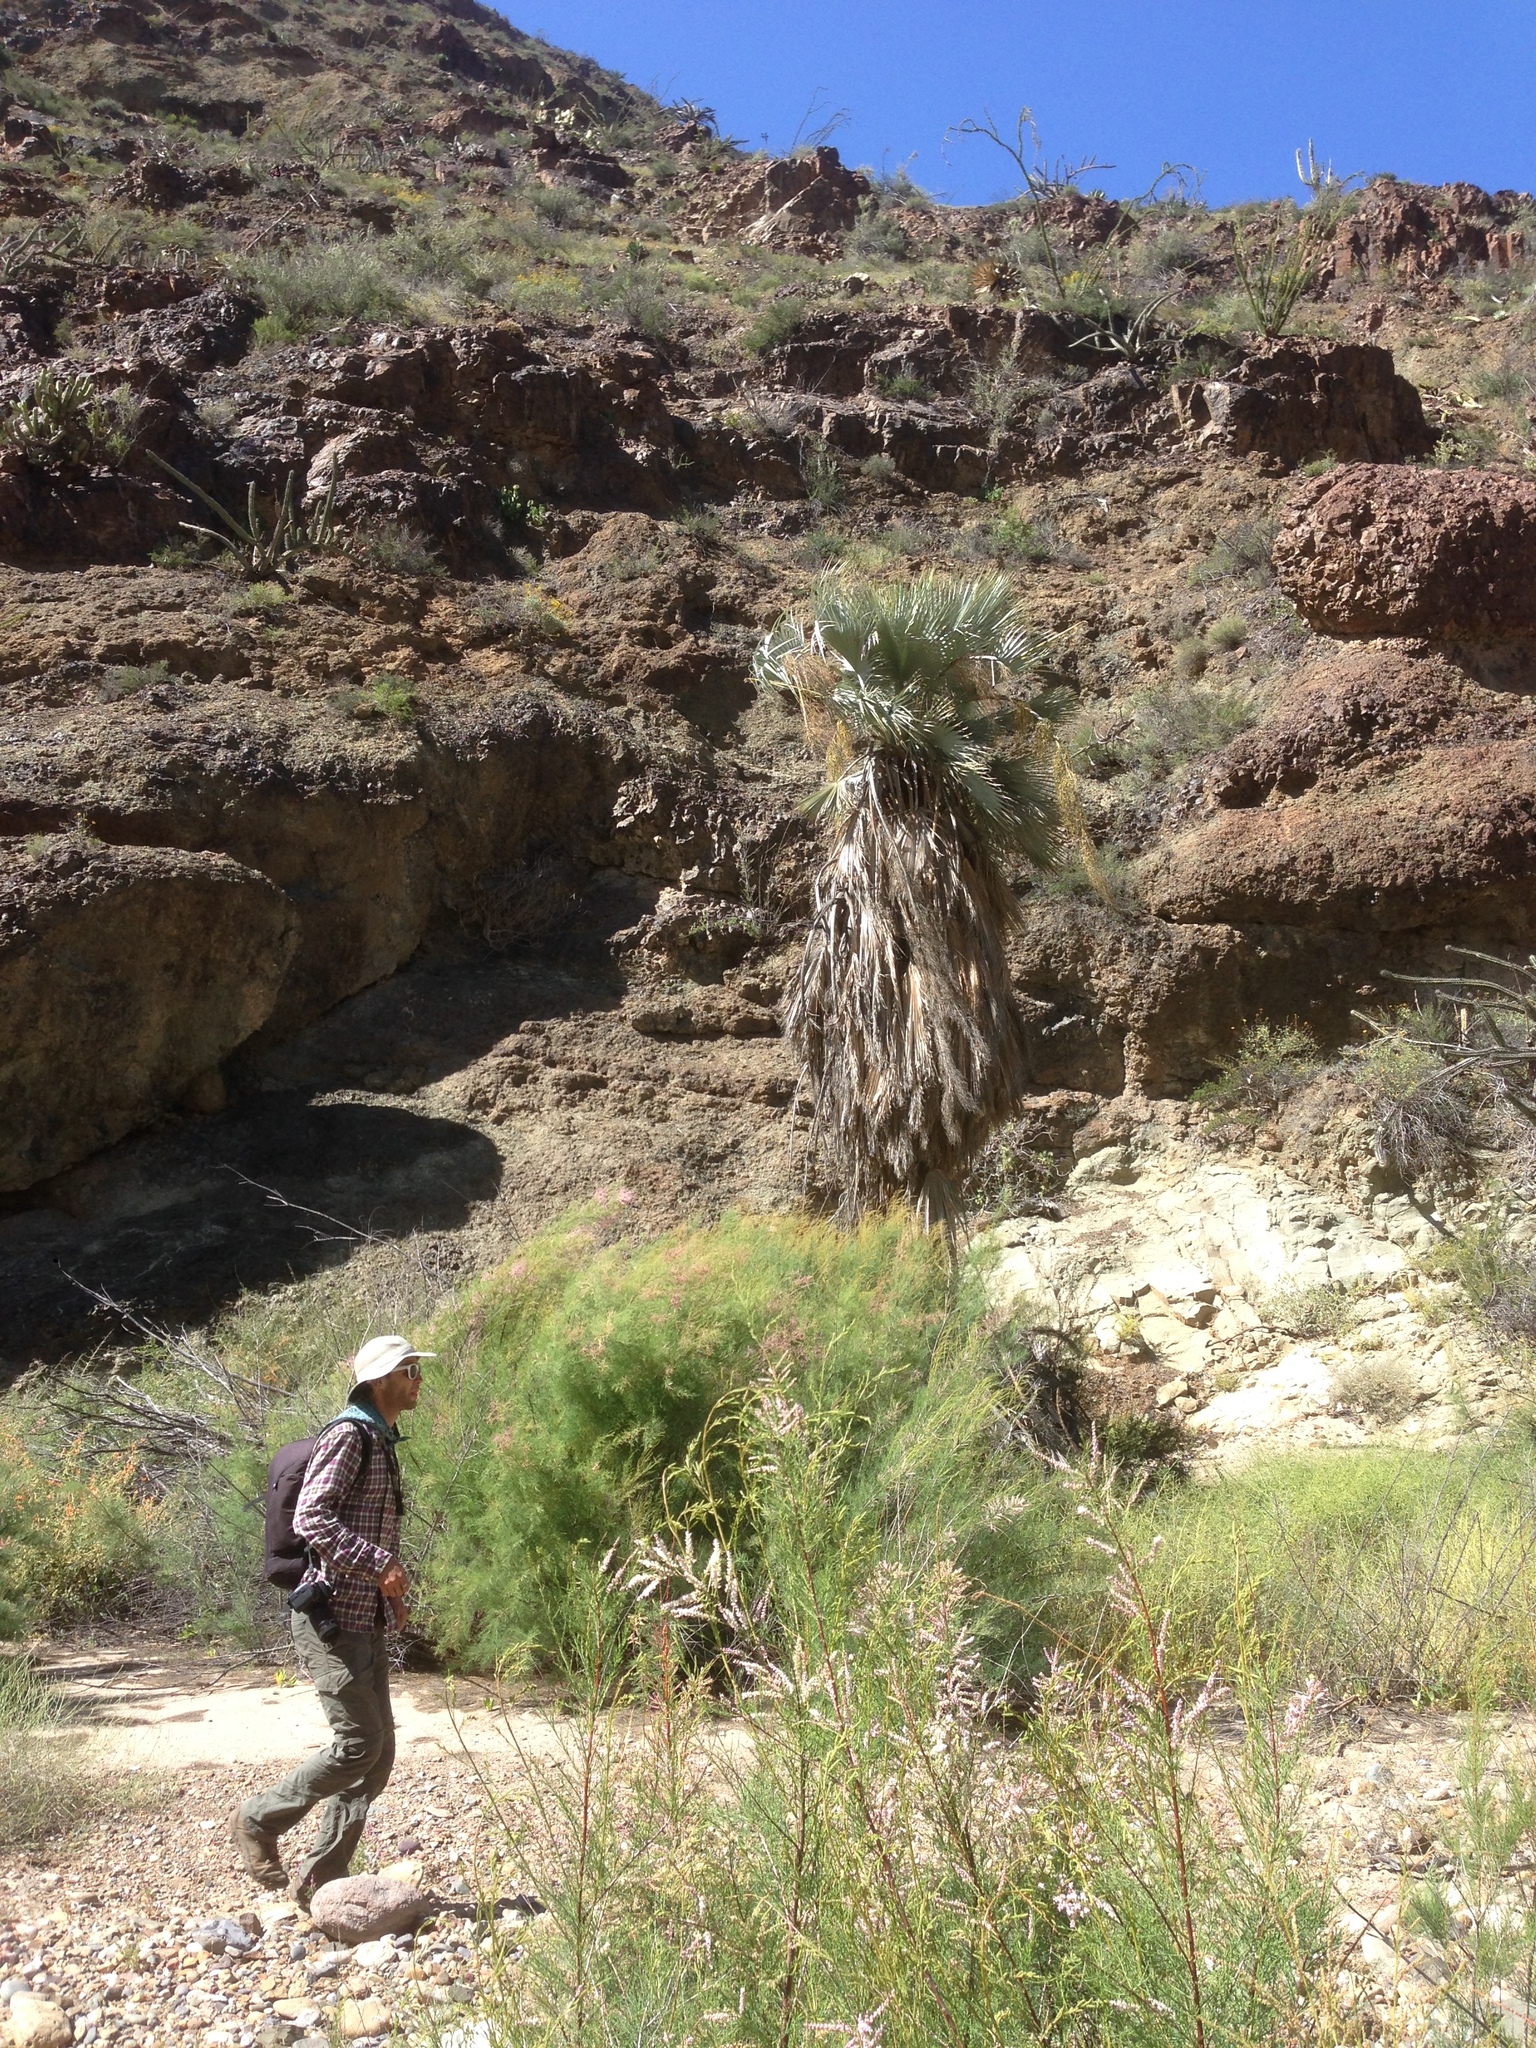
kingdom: Plantae
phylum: Tracheophyta
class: Liliopsida
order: Arecales
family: Arecaceae
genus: Brahea
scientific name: Brahea armata
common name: Mexican blue palm
